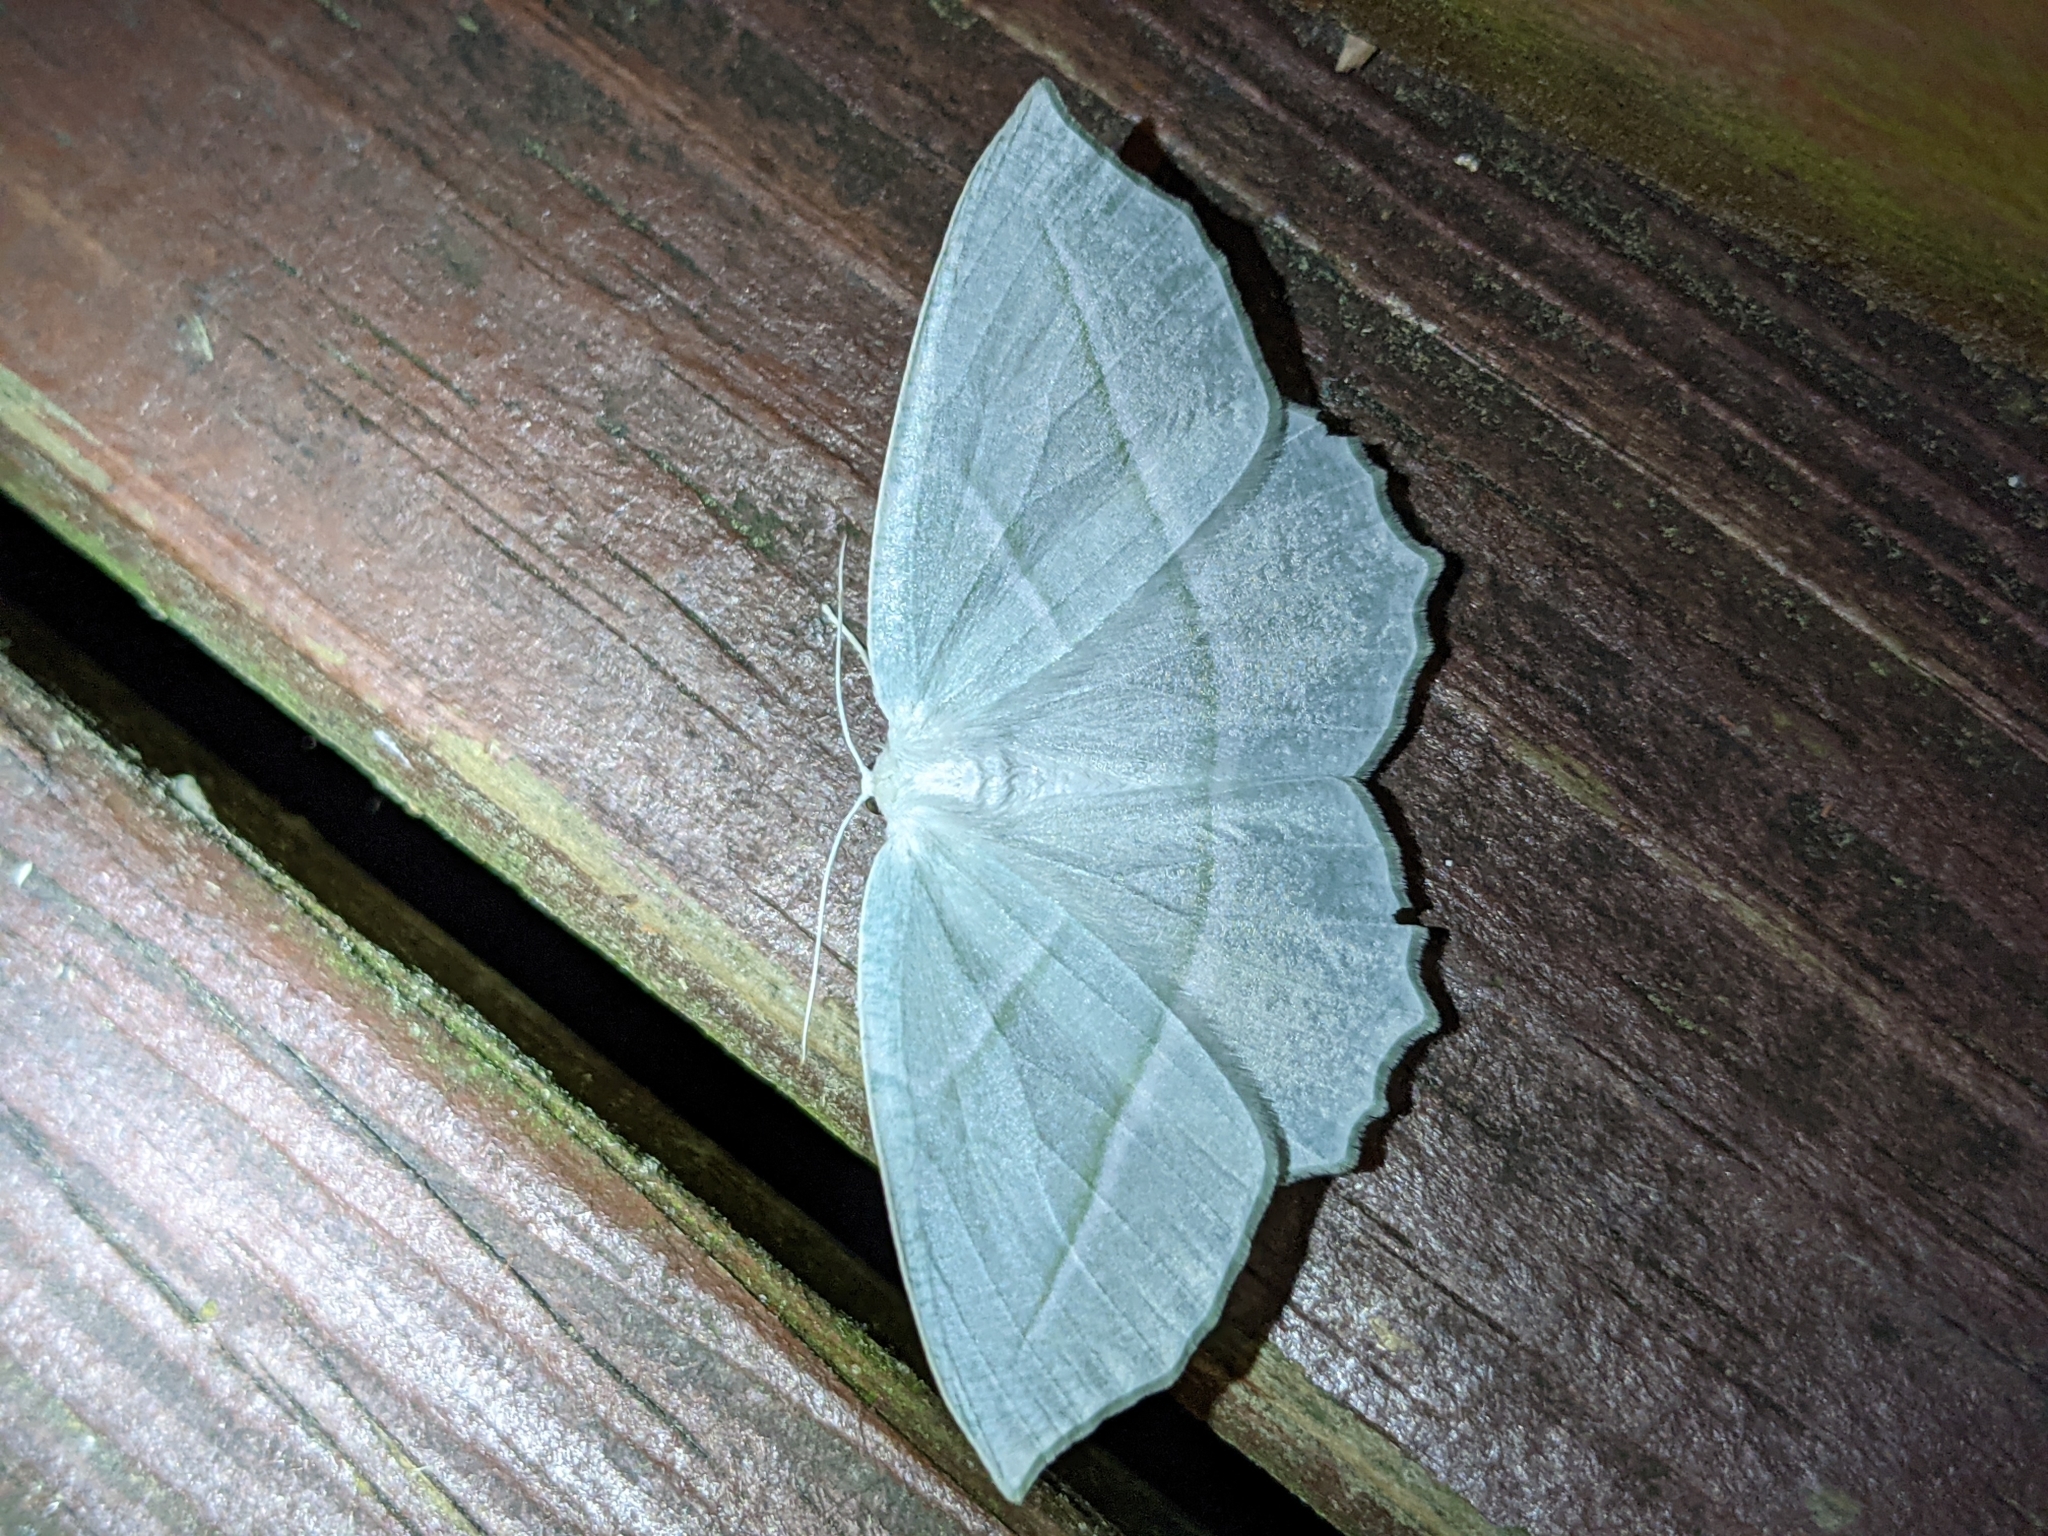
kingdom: Animalia
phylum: Arthropoda
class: Insecta
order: Lepidoptera
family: Geometridae
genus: Campaea
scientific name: Campaea perlata
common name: Fringed looper
